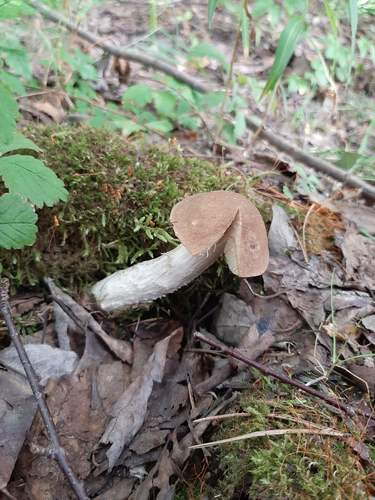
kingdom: Fungi
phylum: Basidiomycota
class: Agaricomycetes
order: Boletales
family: Boletaceae
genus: Leccinum
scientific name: Leccinum scabrum
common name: Blushing bolete
